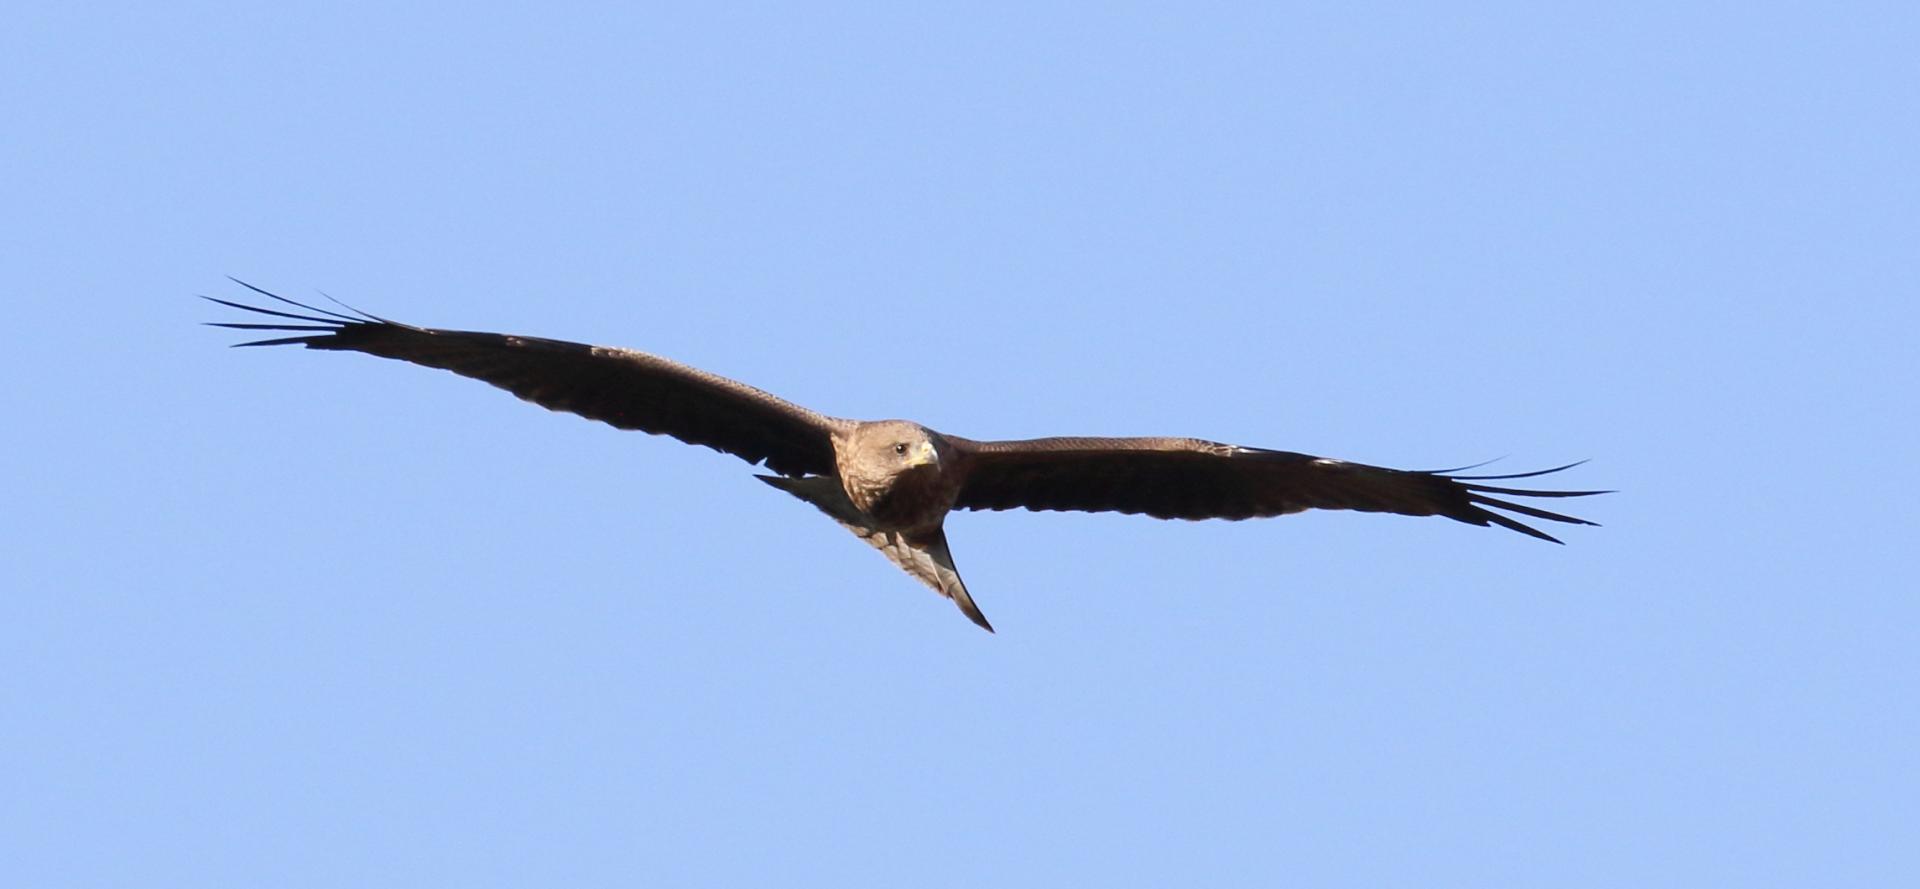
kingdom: Animalia
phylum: Chordata
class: Aves
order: Accipitriformes
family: Accipitridae
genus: Milvus
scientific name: Milvus migrans
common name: Black kite
